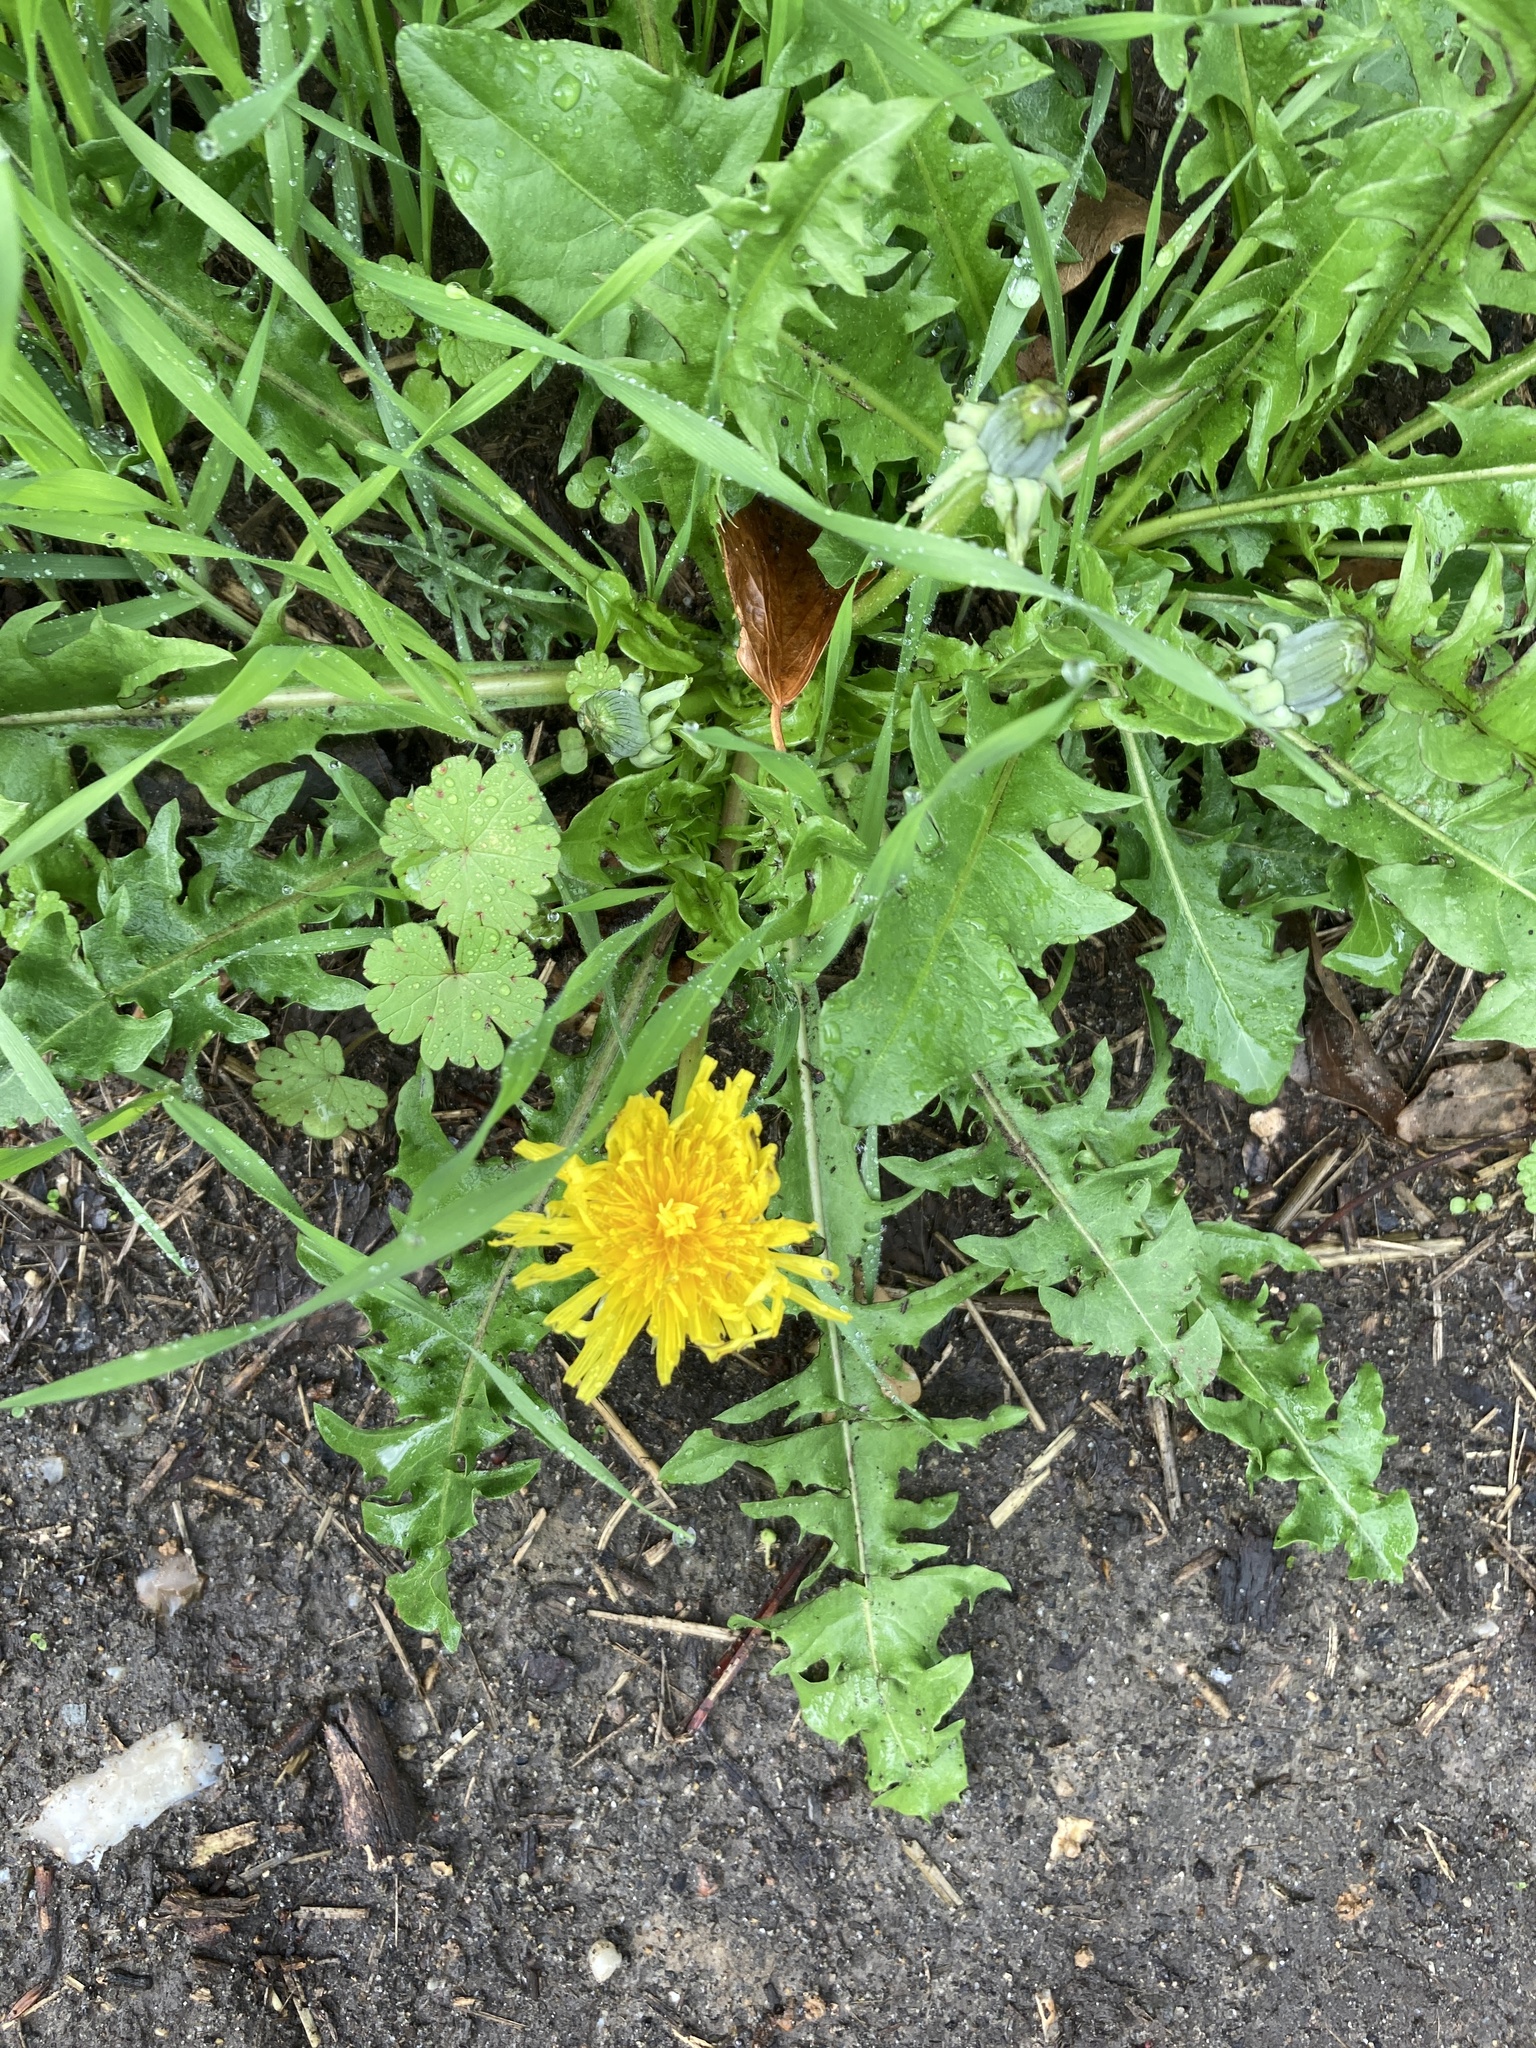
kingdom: Plantae
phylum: Tracheophyta
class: Magnoliopsida
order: Asterales
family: Asteraceae
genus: Taraxacum
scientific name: Taraxacum officinale
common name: Common dandelion
